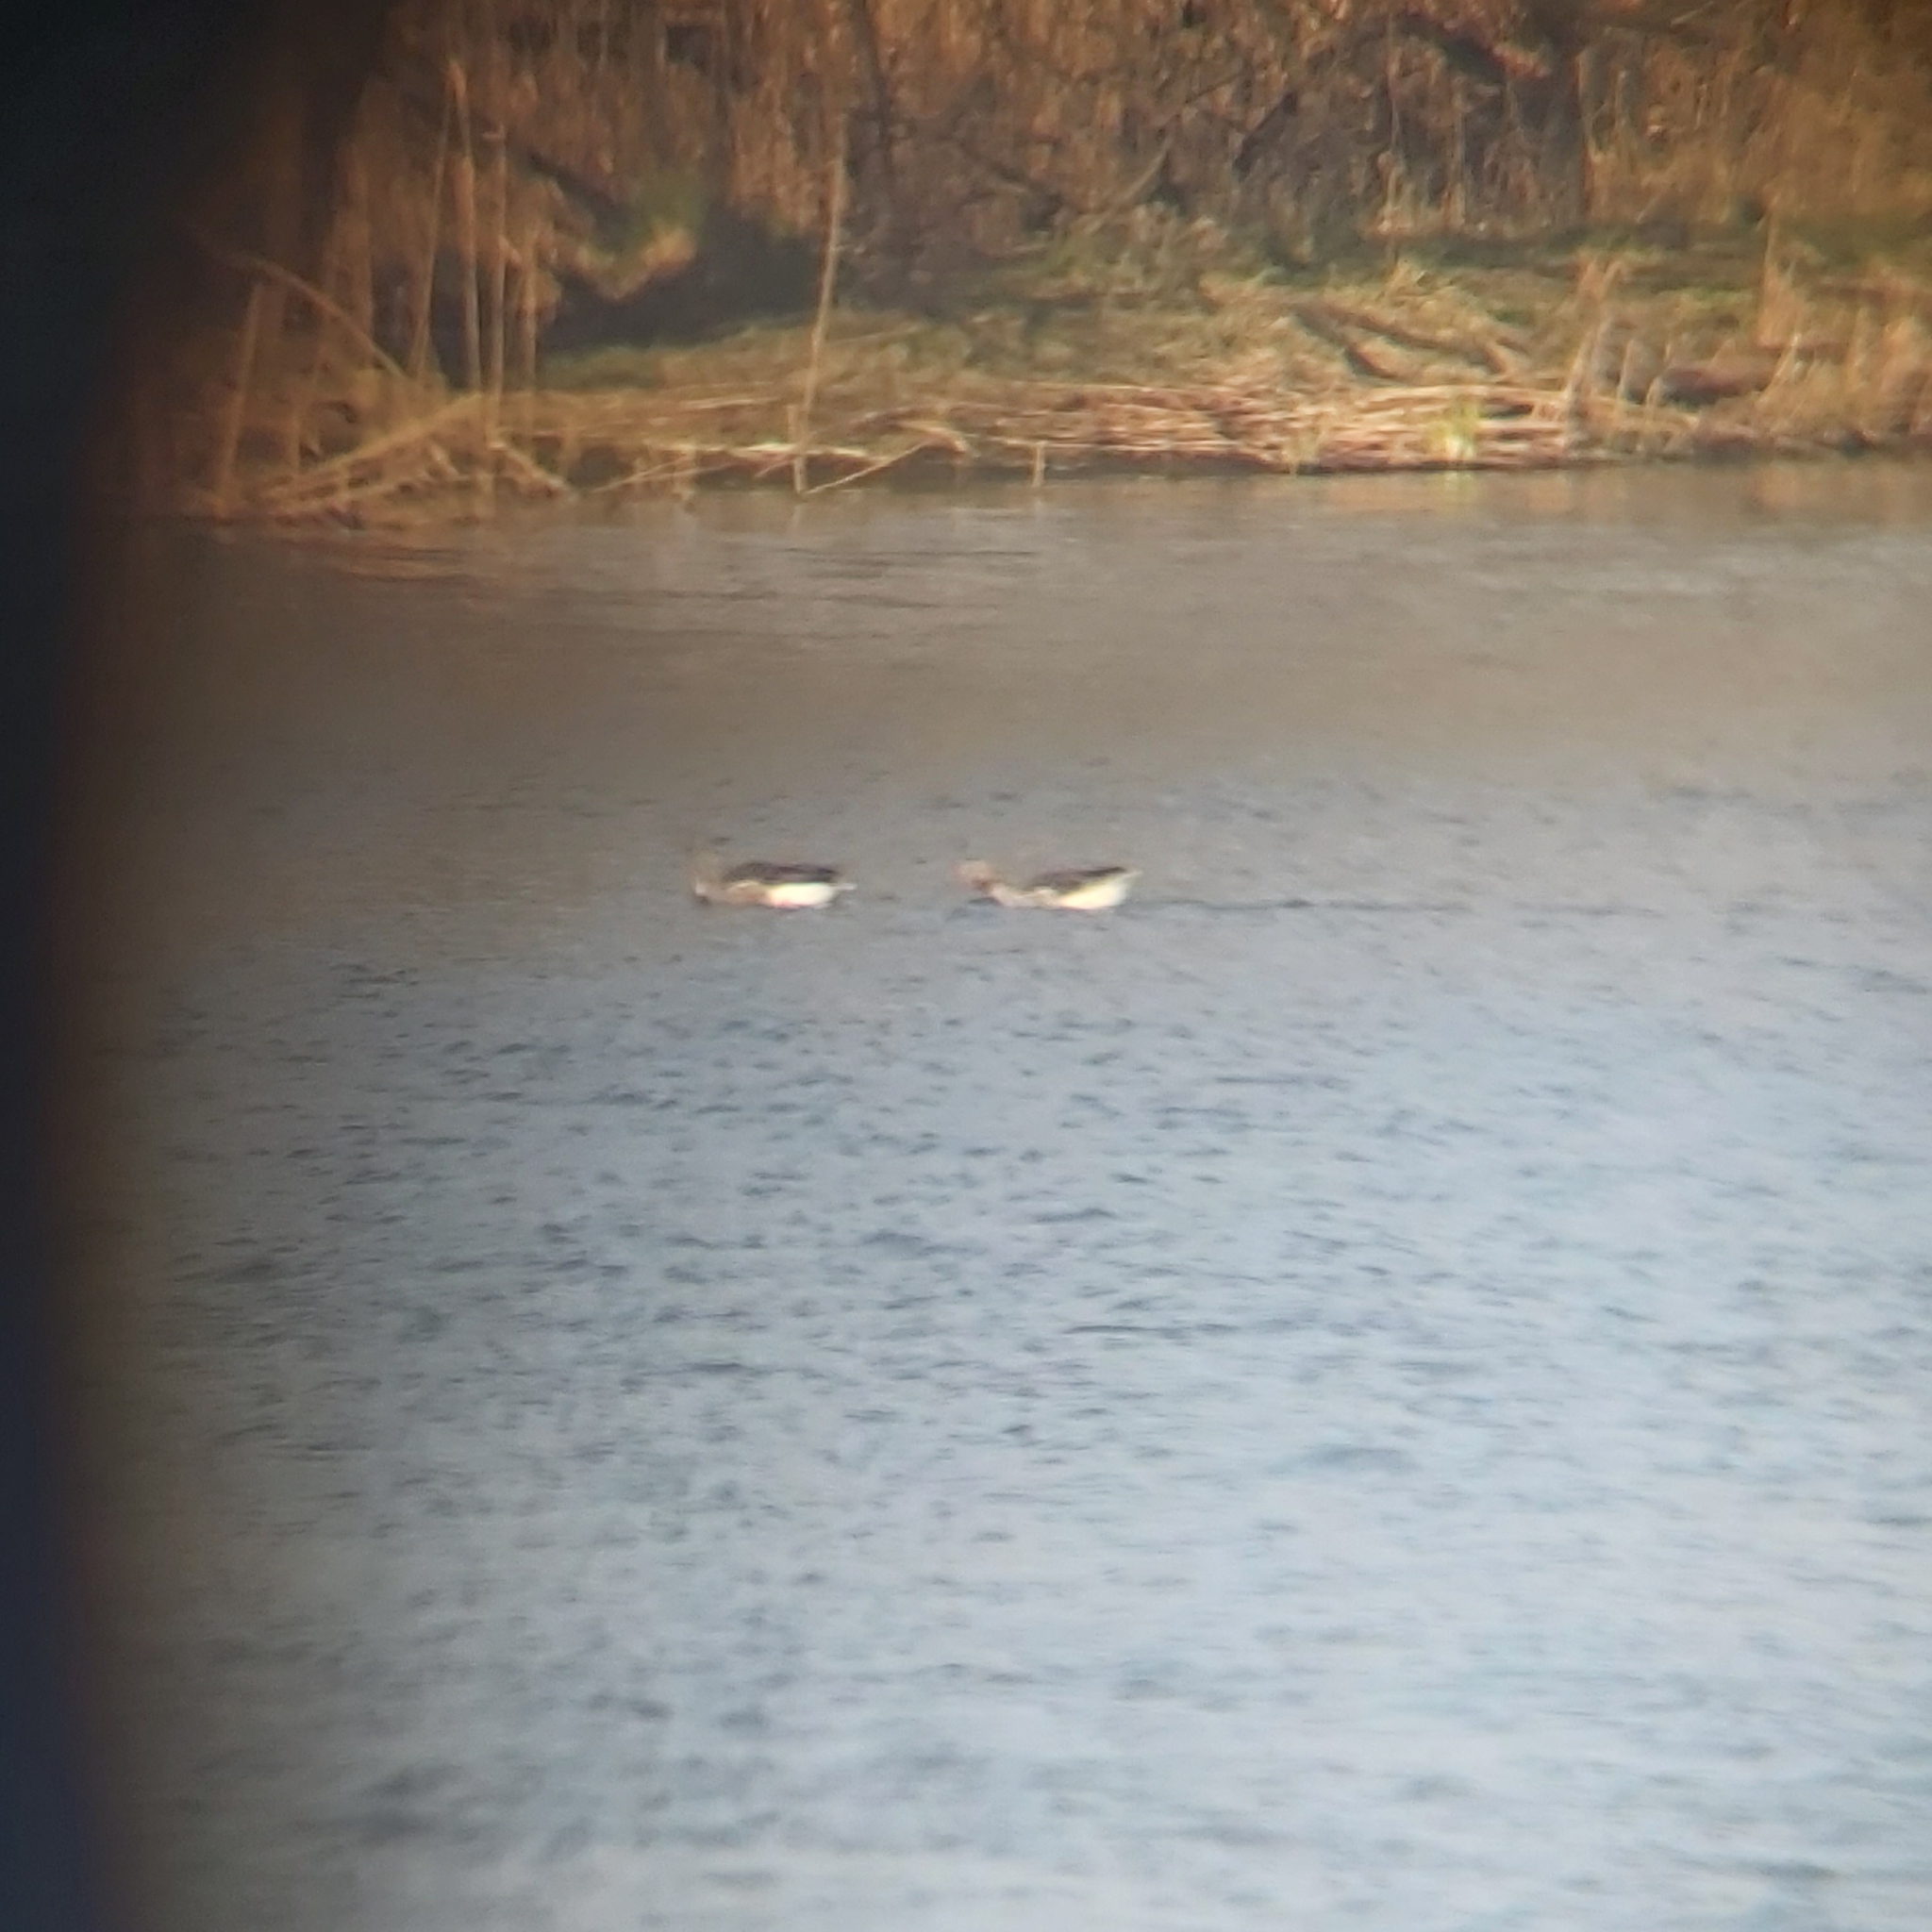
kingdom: Animalia
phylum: Chordata
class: Aves
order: Anseriformes
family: Anatidae
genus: Anser
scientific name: Anser anser
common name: Greylag goose
